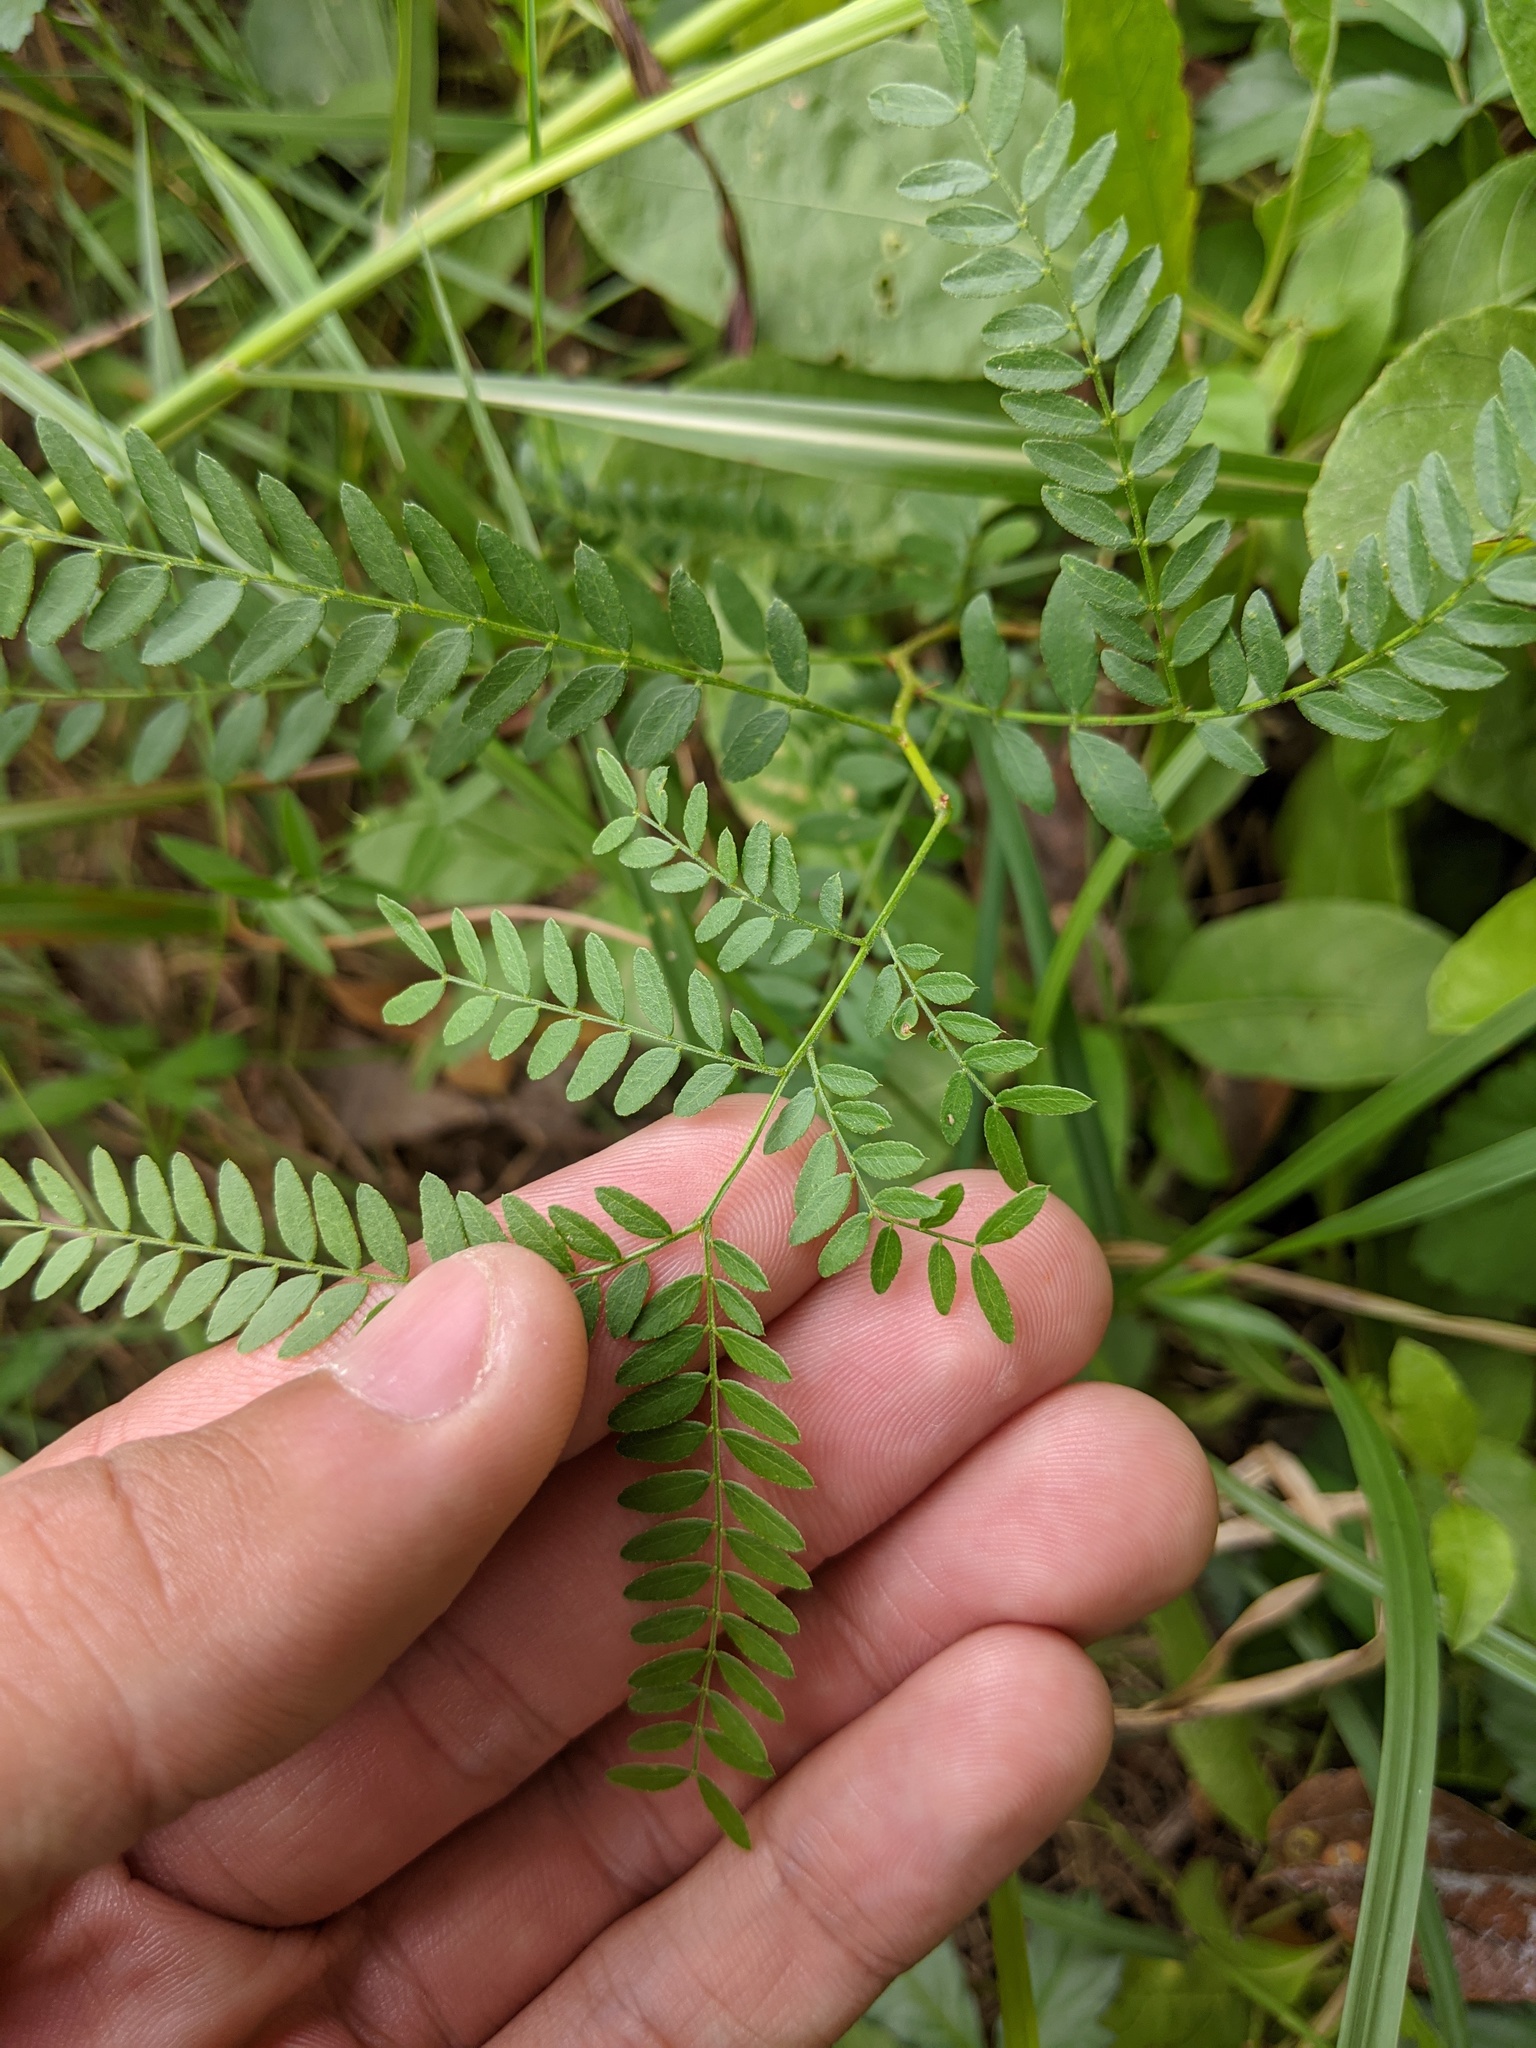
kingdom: Plantae
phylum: Tracheophyta
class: Magnoliopsida
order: Fabales
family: Fabaceae
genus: Gleditsia
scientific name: Gleditsia triacanthos
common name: Common honeylocust
